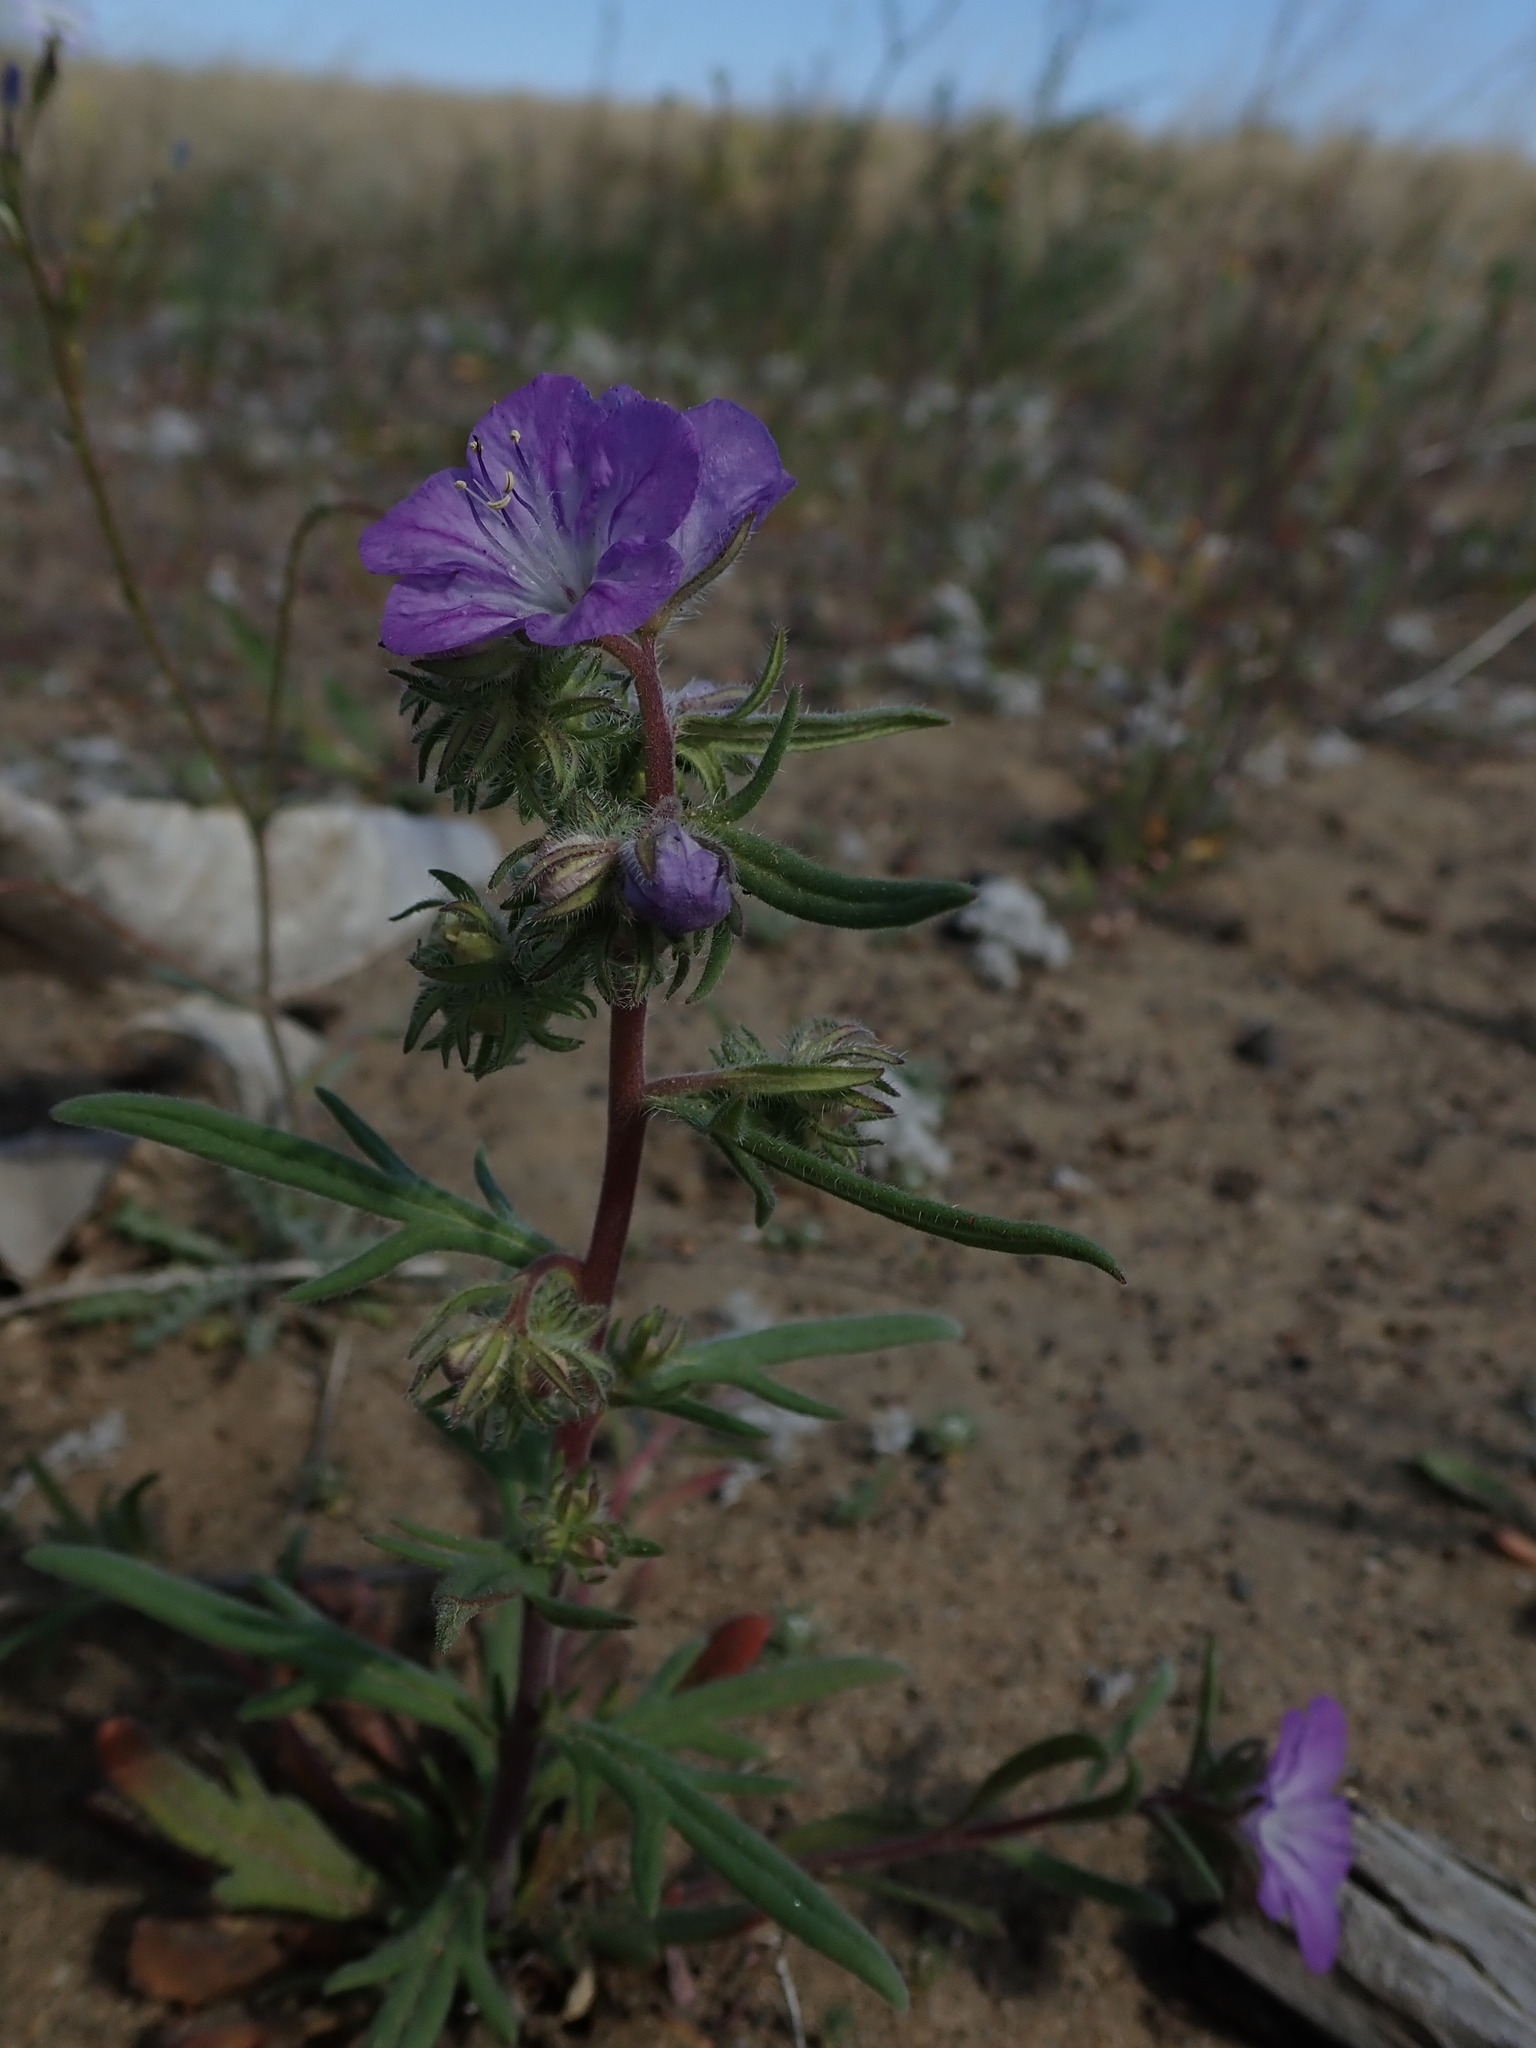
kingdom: Plantae
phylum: Tracheophyta
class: Magnoliopsida
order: Boraginales
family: Hydrophyllaceae
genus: Phacelia
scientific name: Phacelia linearis
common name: Linear-leaved phacelia
